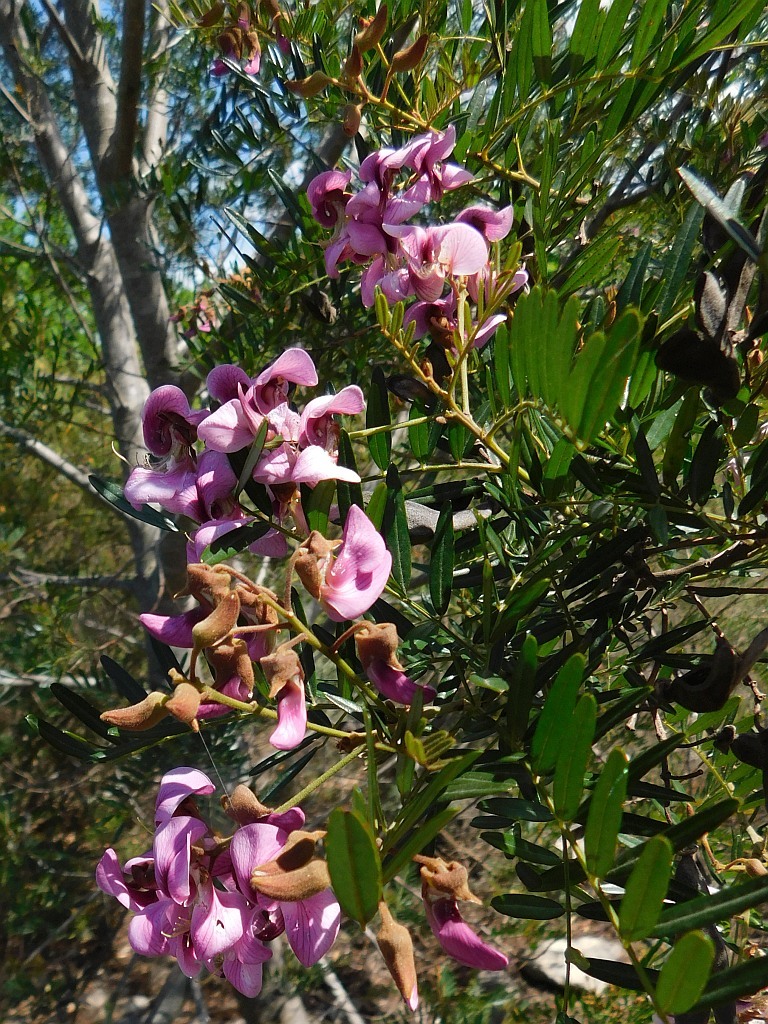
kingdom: Plantae
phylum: Tracheophyta
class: Magnoliopsida
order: Fabales
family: Fabaceae
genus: Virgilia
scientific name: Virgilia oroboides
